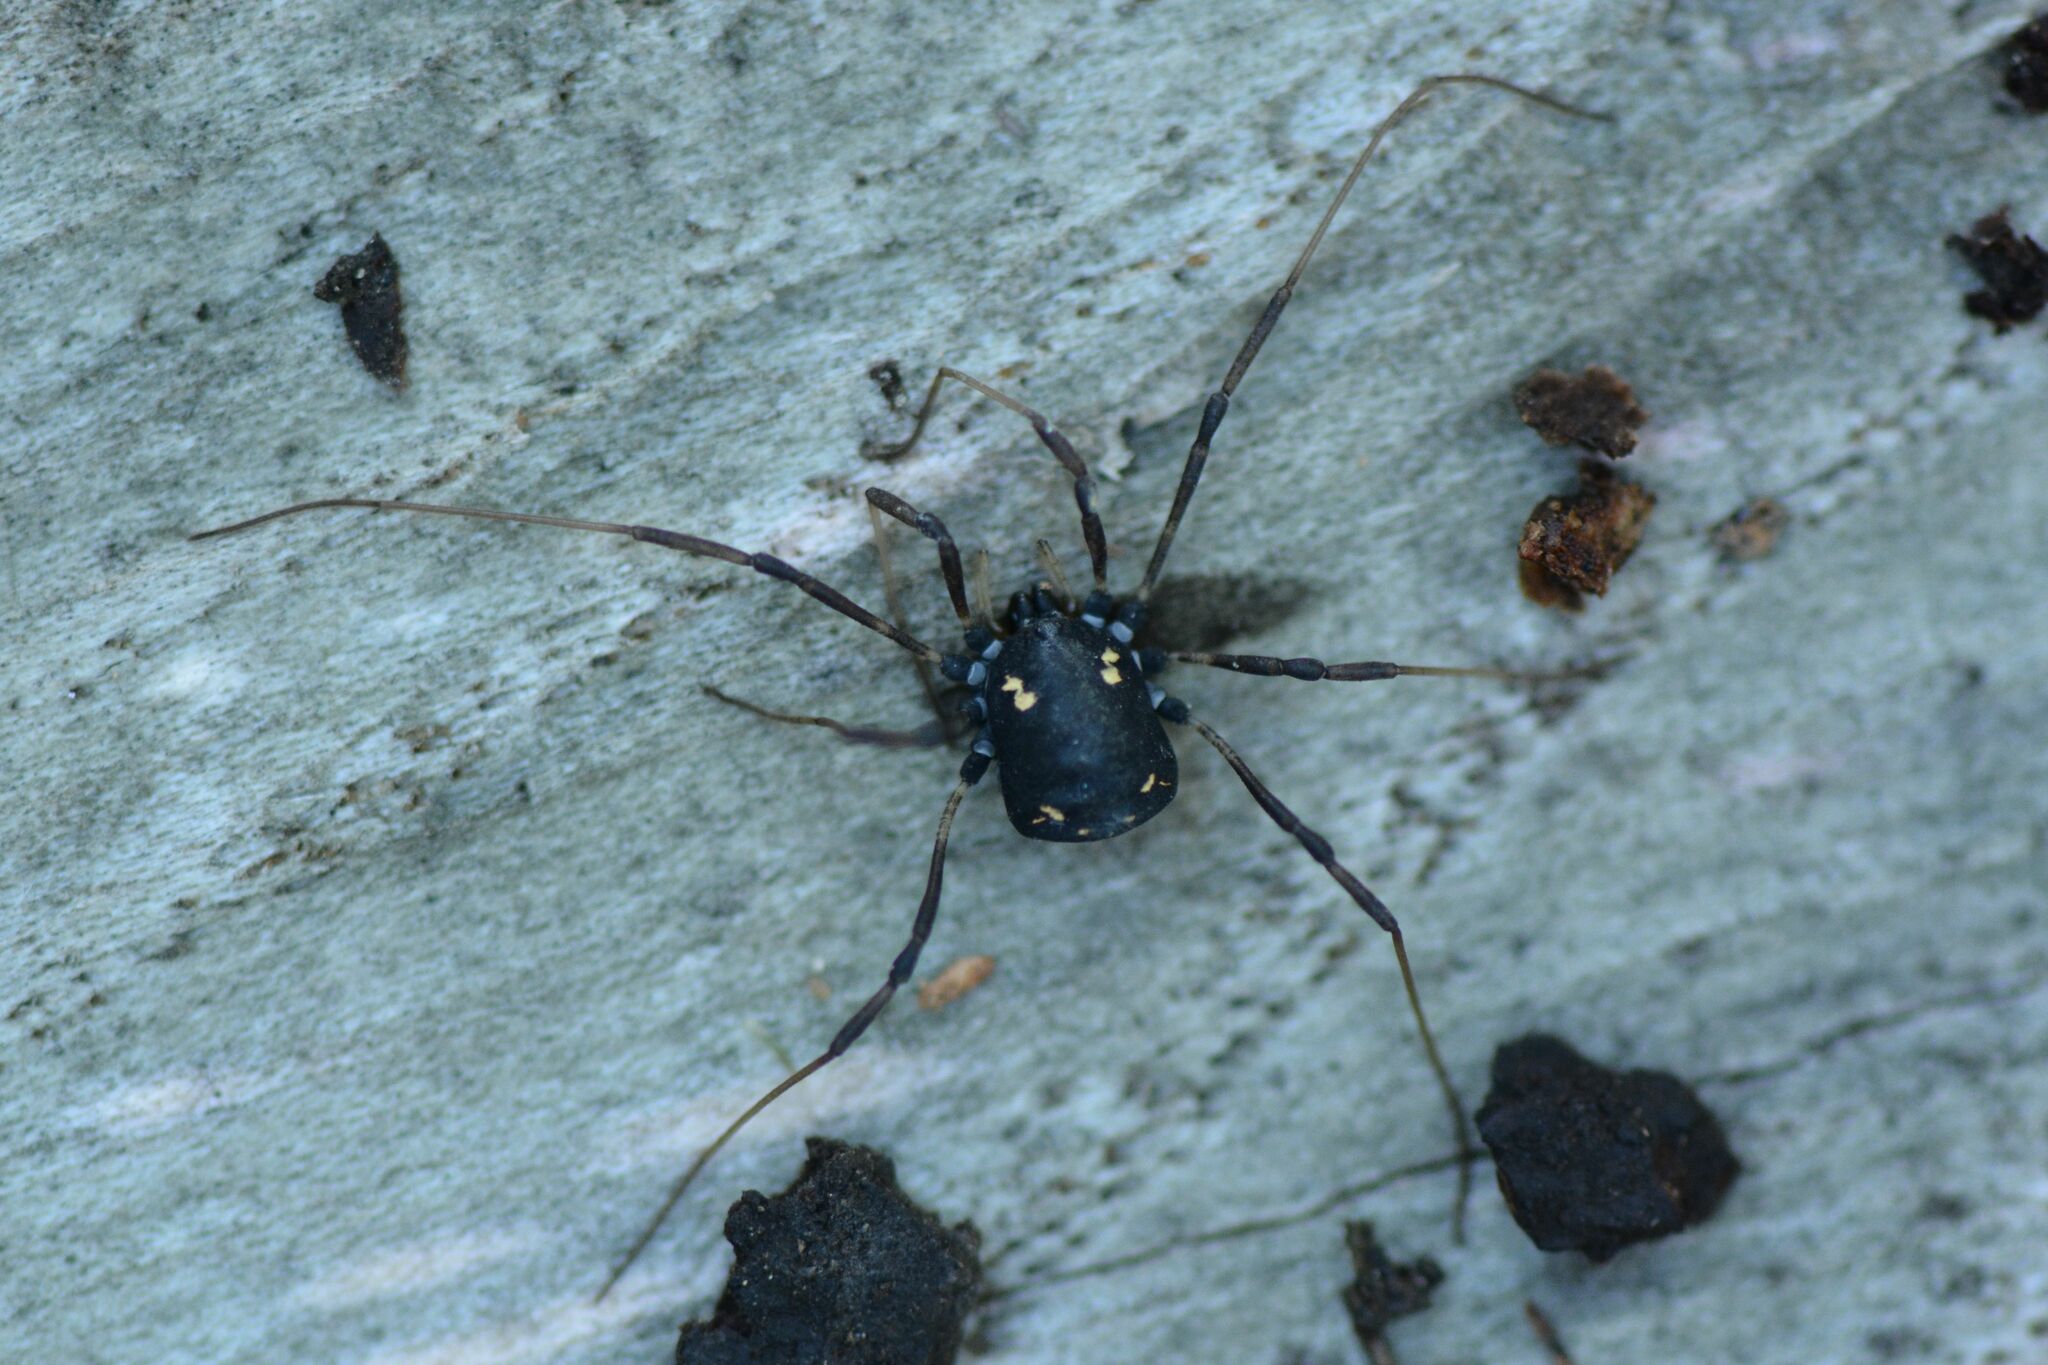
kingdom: Animalia
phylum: Arthropoda
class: Arachnida
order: Opiliones
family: Nemastomatidae
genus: Paranemastoma
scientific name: Paranemastoma quadripunctatum
